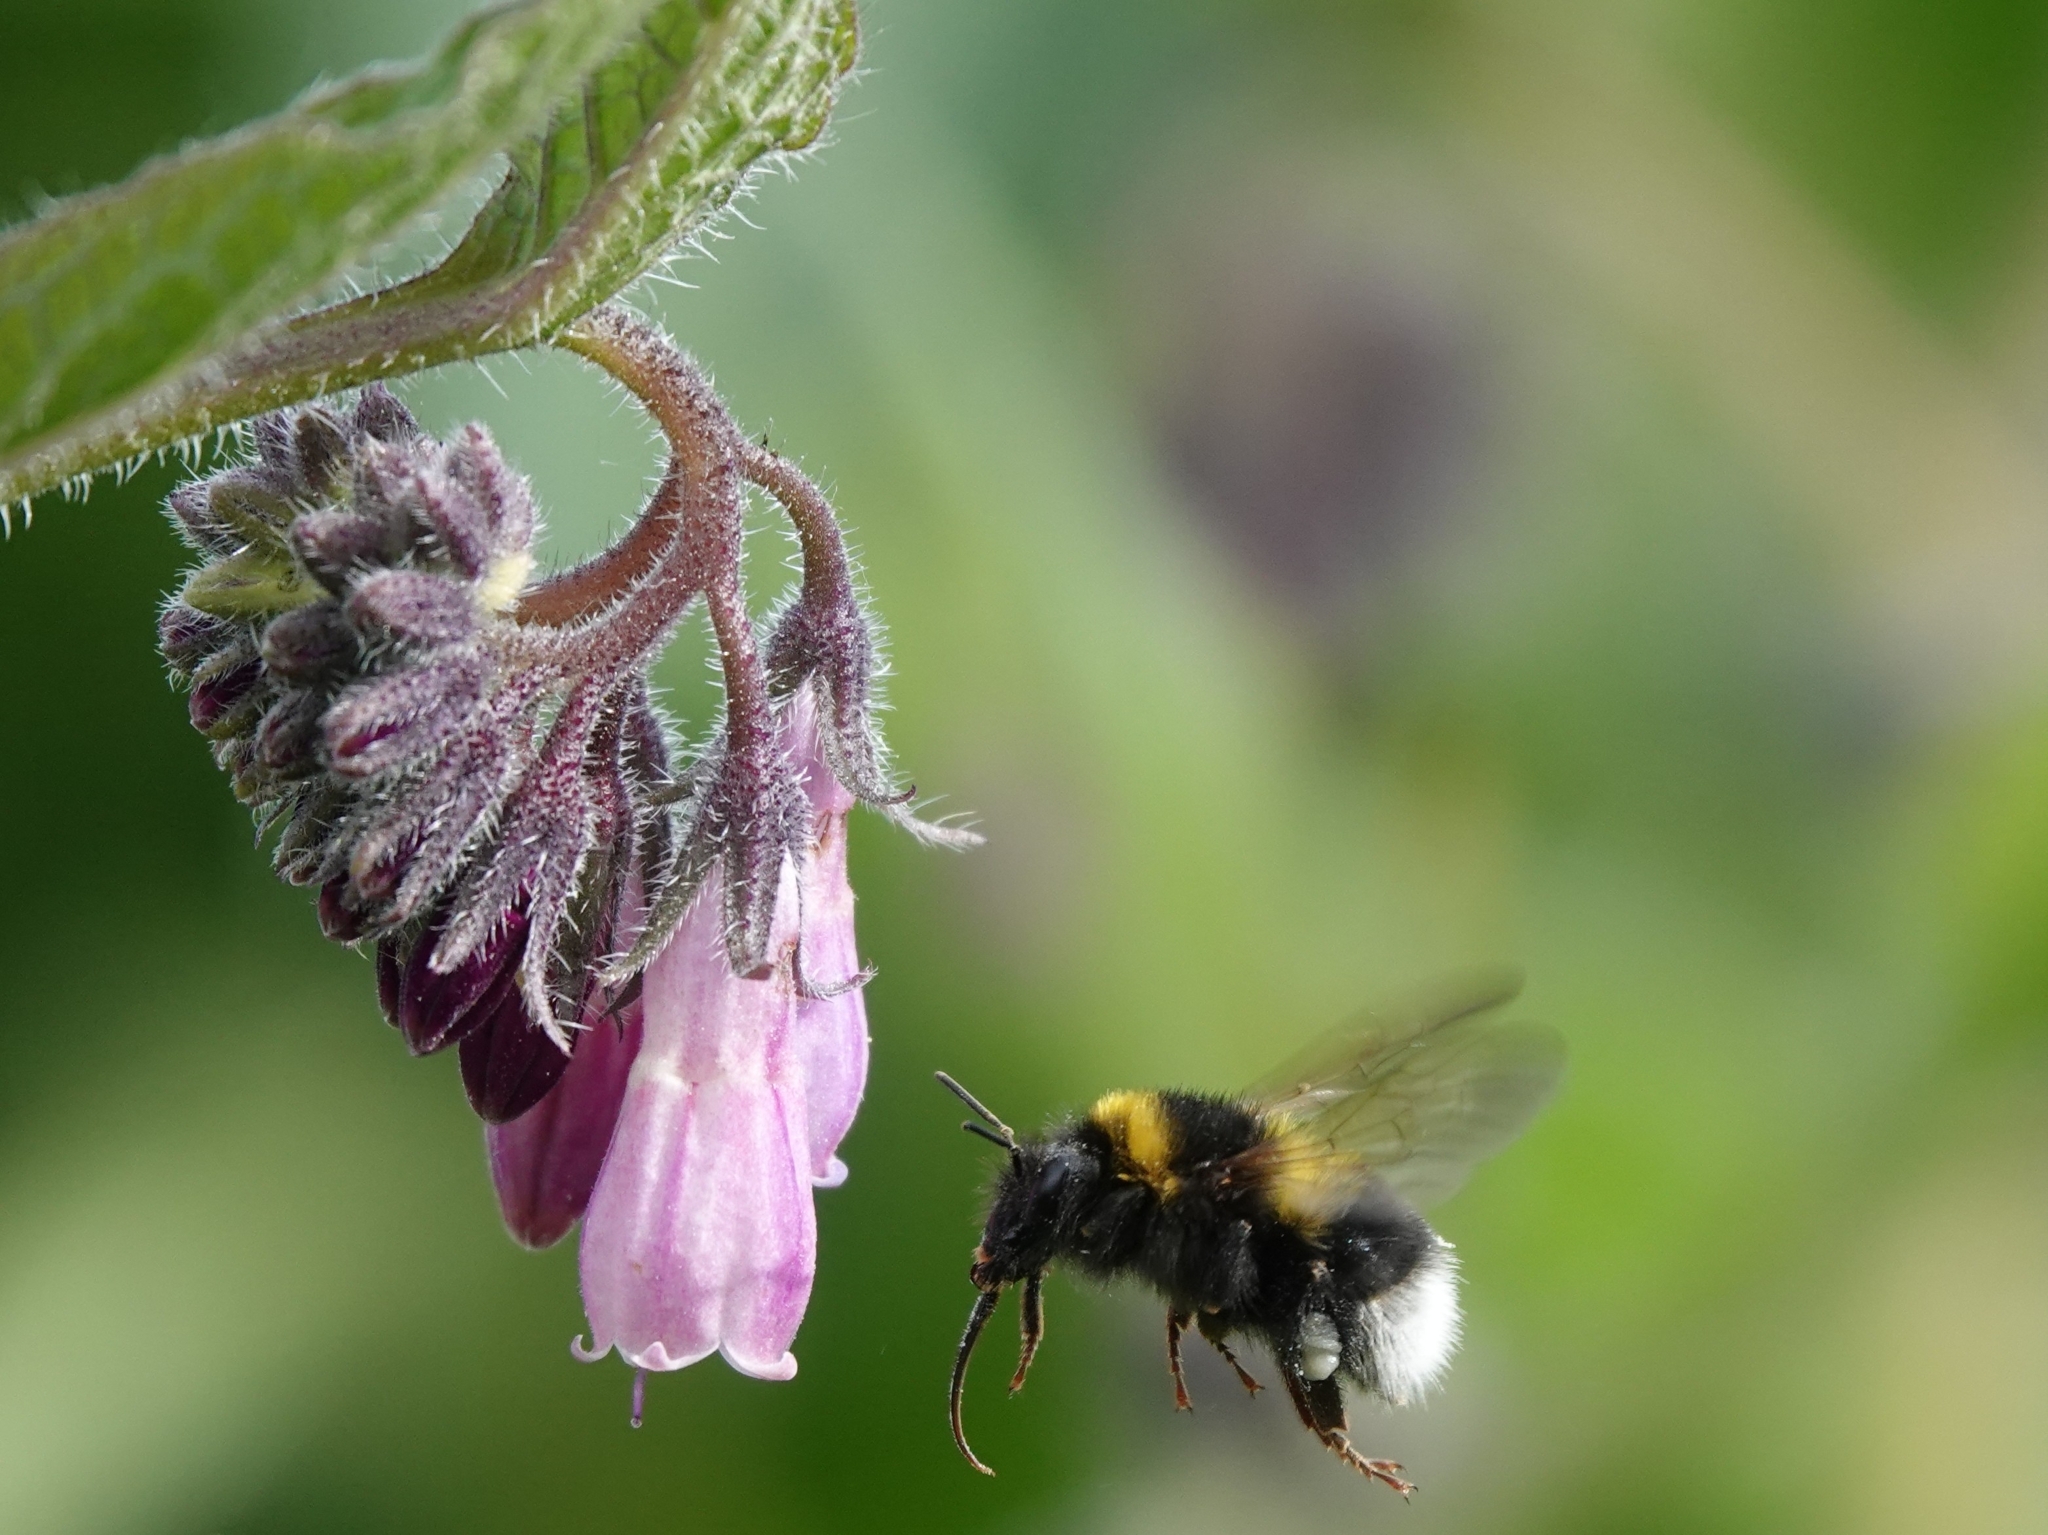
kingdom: Animalia
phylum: Arthropoda
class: Insecta
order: Hymenoptera
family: Apidae
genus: Bombus
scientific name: Bombus hortorum
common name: Garden bumblebee
